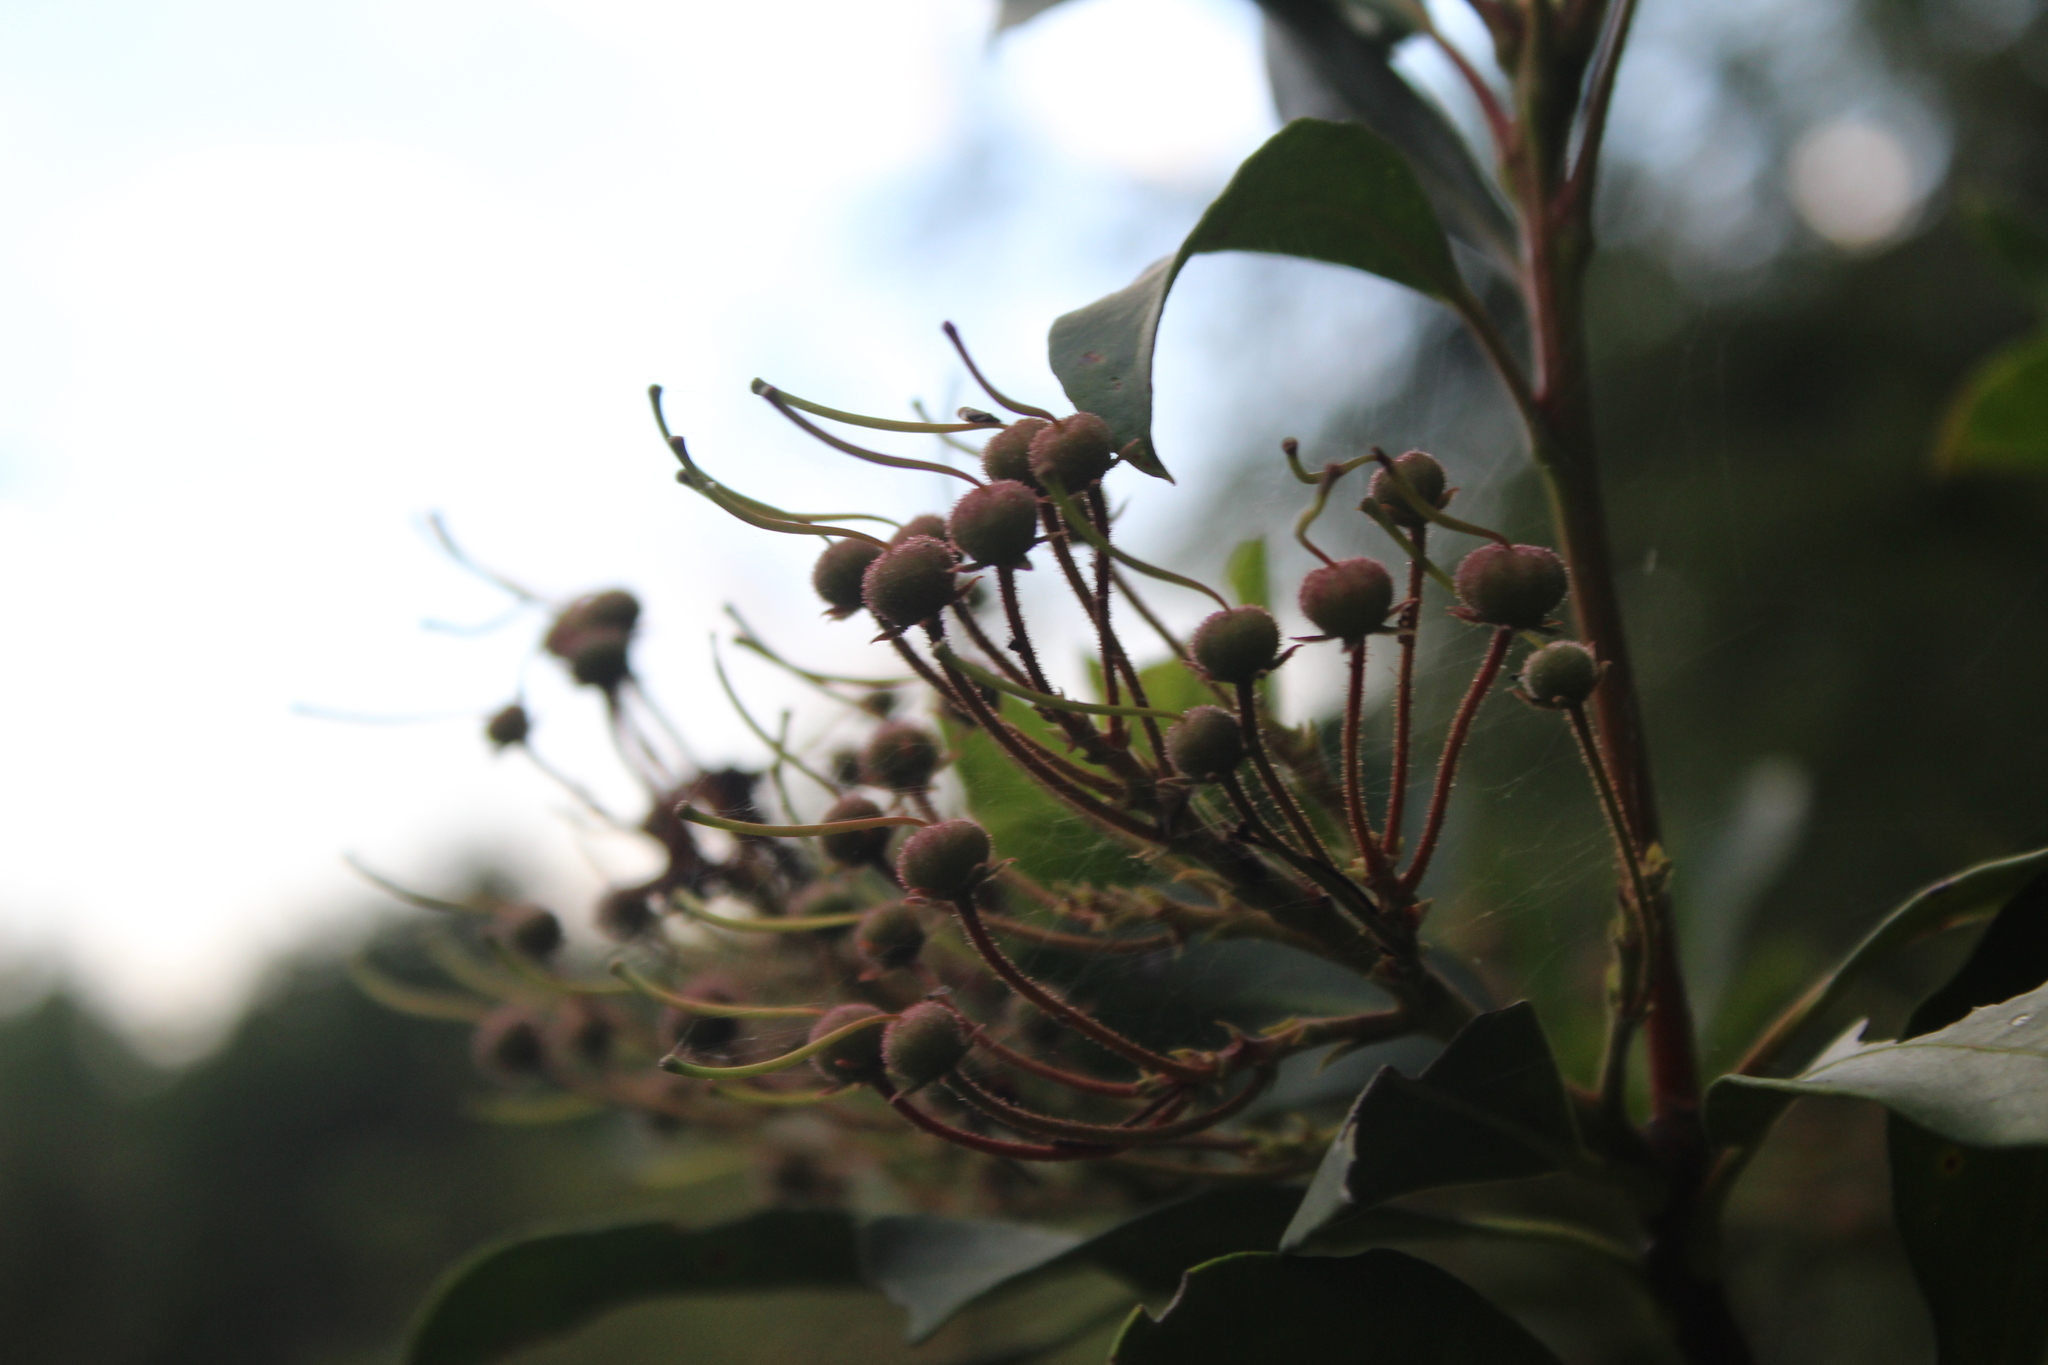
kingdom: Plantae
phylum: Tracheophyta
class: Magnoliopsida
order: Ericales
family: Ericaceae
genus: Kalmia
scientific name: Kalmia latifolia
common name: Mountain-laurel
